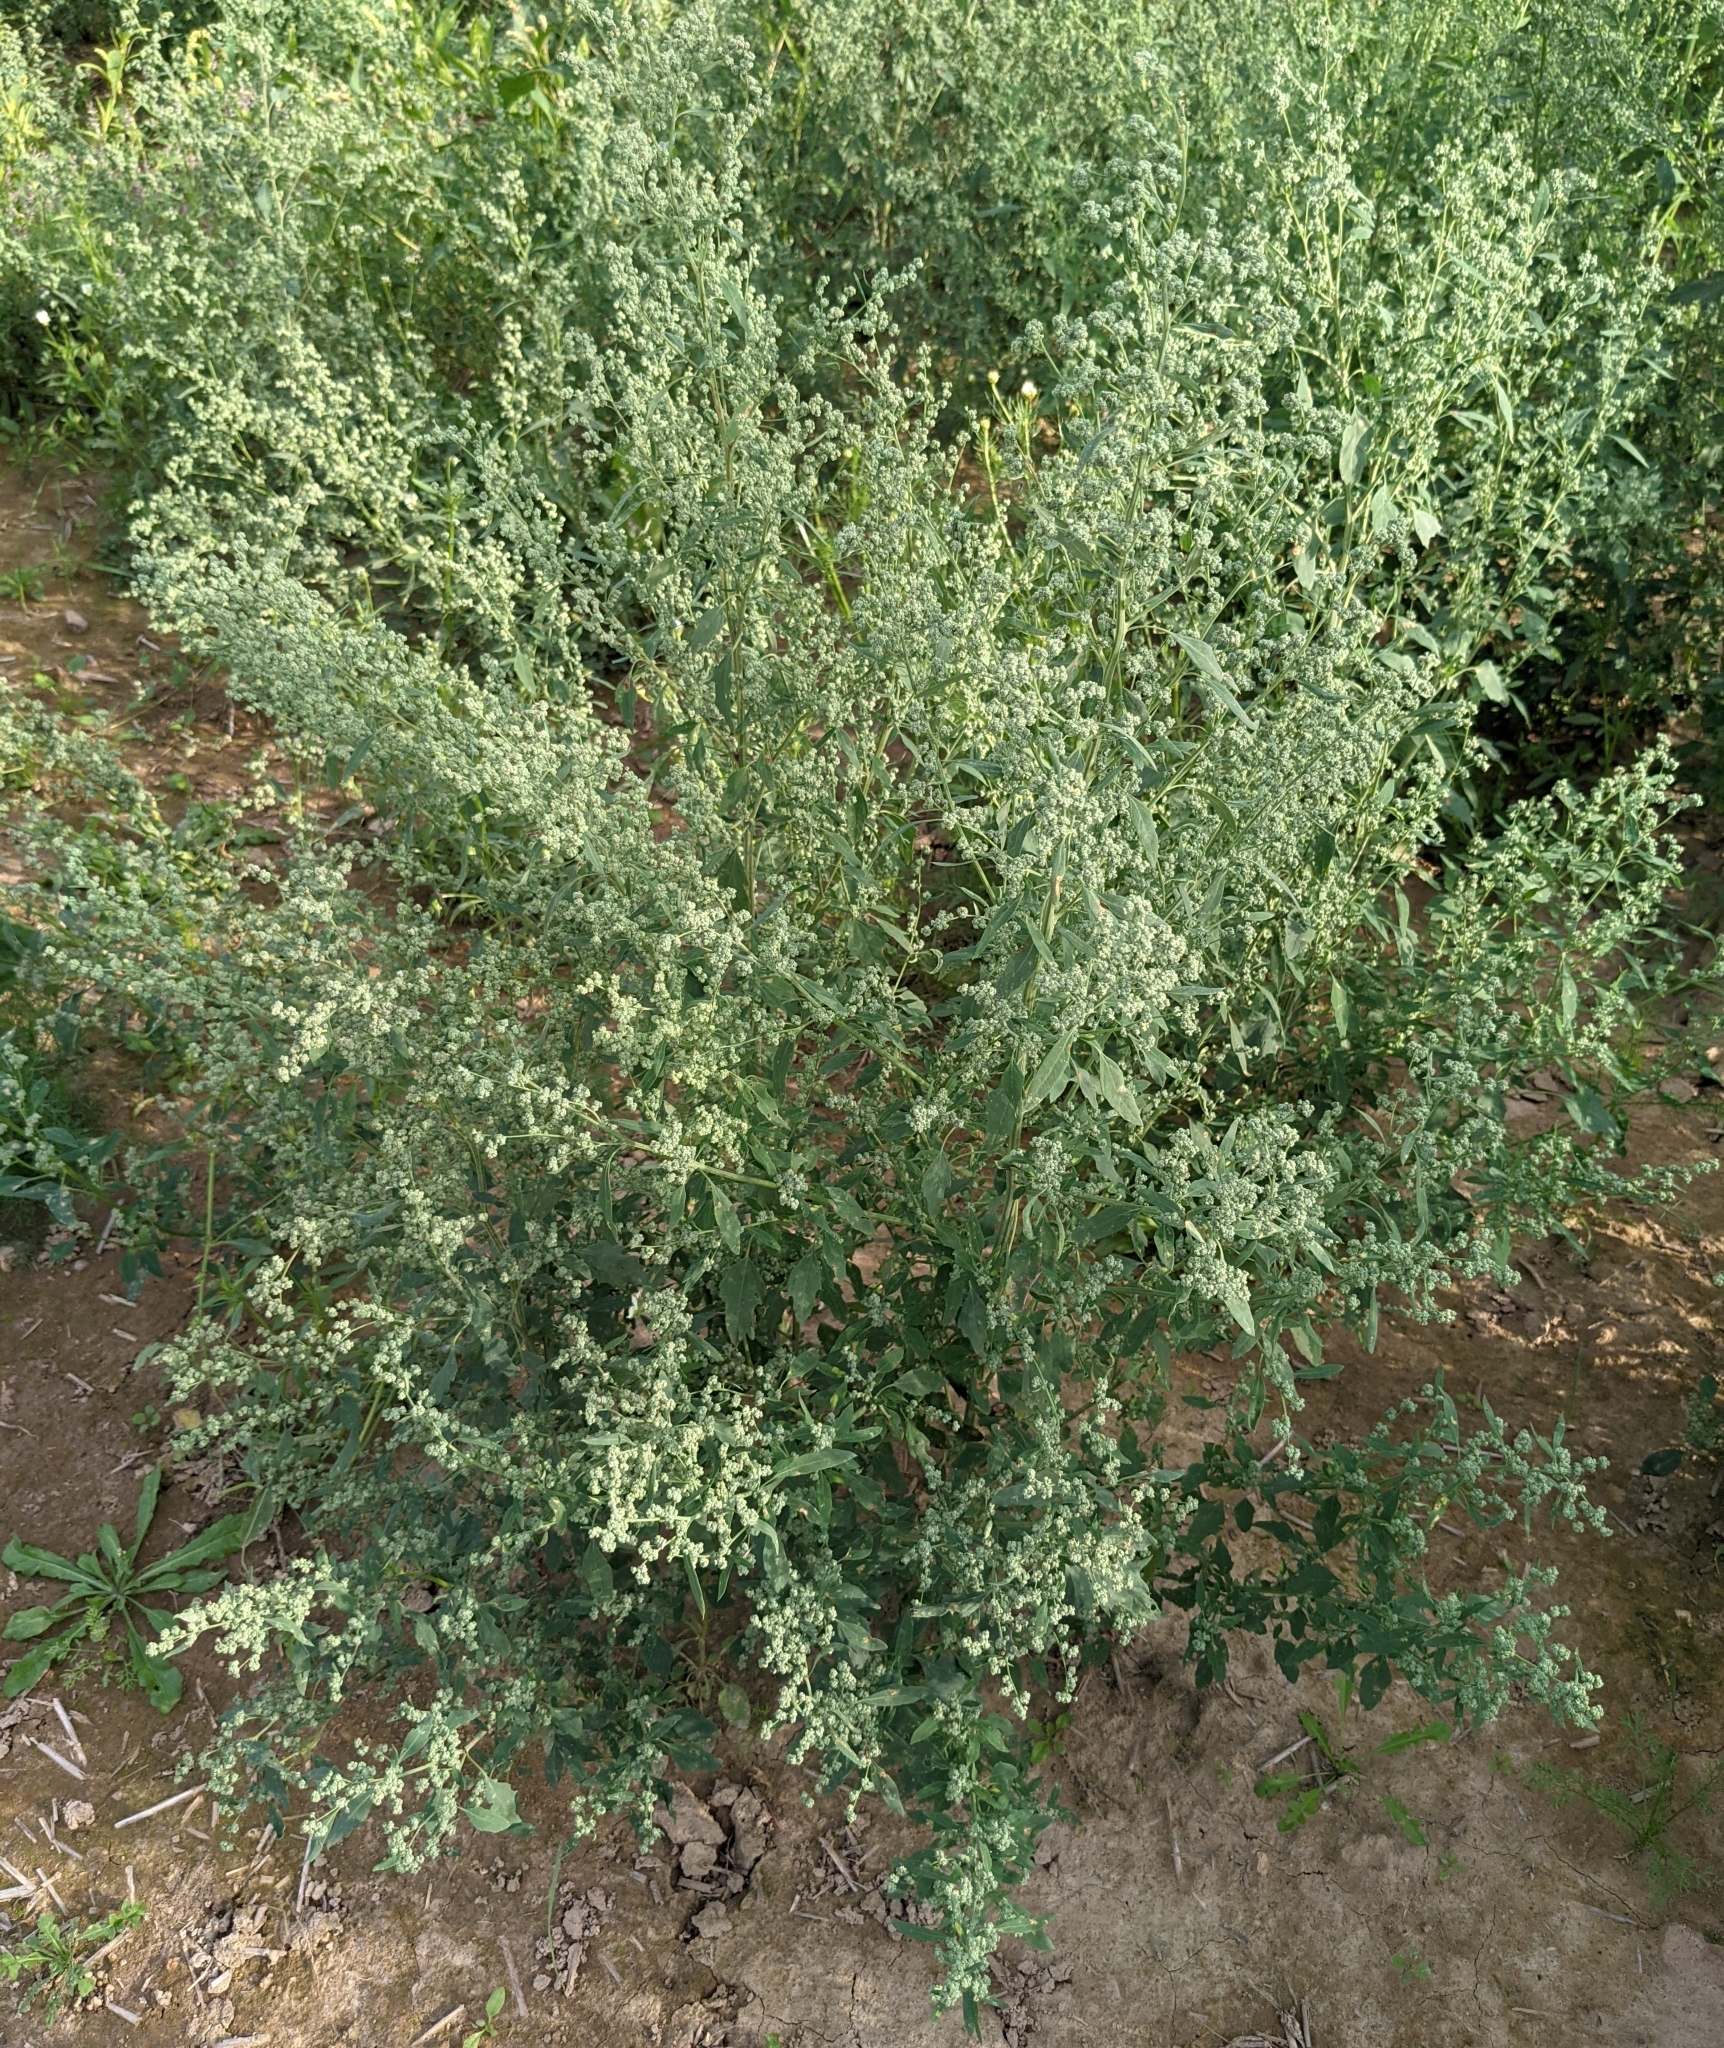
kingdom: Plantae
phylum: Tracheophyta
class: Magnoliopsida
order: Caryophyllales
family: Amaranthaceae
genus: Chenopodium
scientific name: Chenopodium album
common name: Fat-hen
